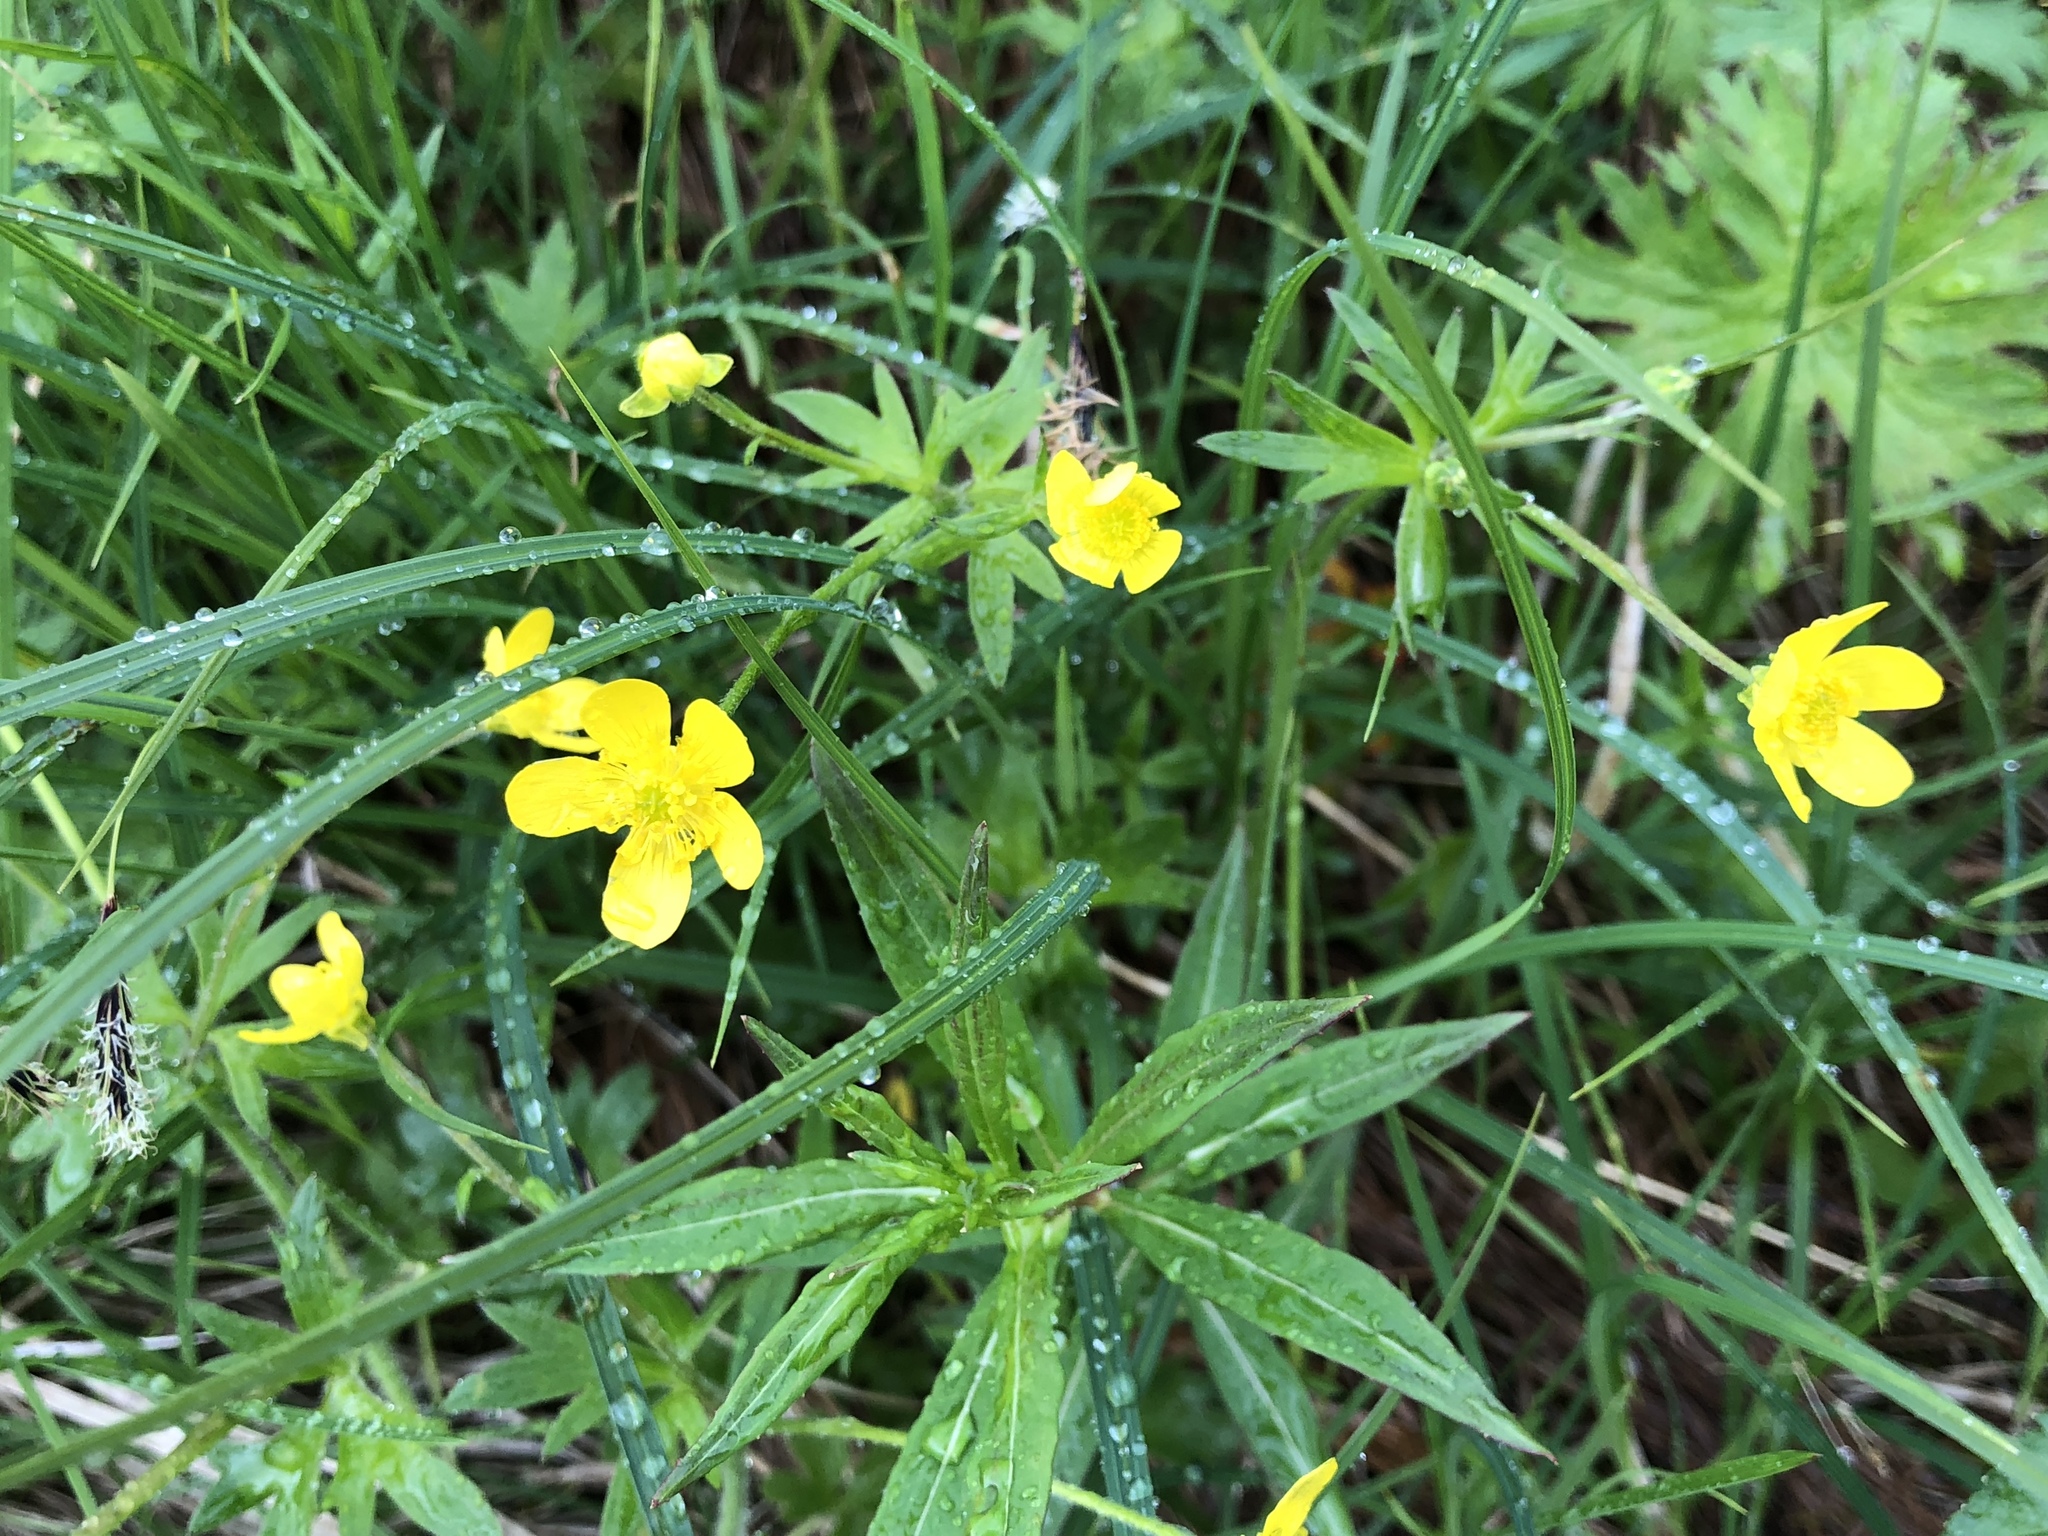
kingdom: Plantae
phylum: Tracheophyta
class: Magnoliopsida
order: Ranunculales
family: Ranunculaceae
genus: Ranunculus
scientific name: Ranunculus acris
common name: Meadow buttercup
